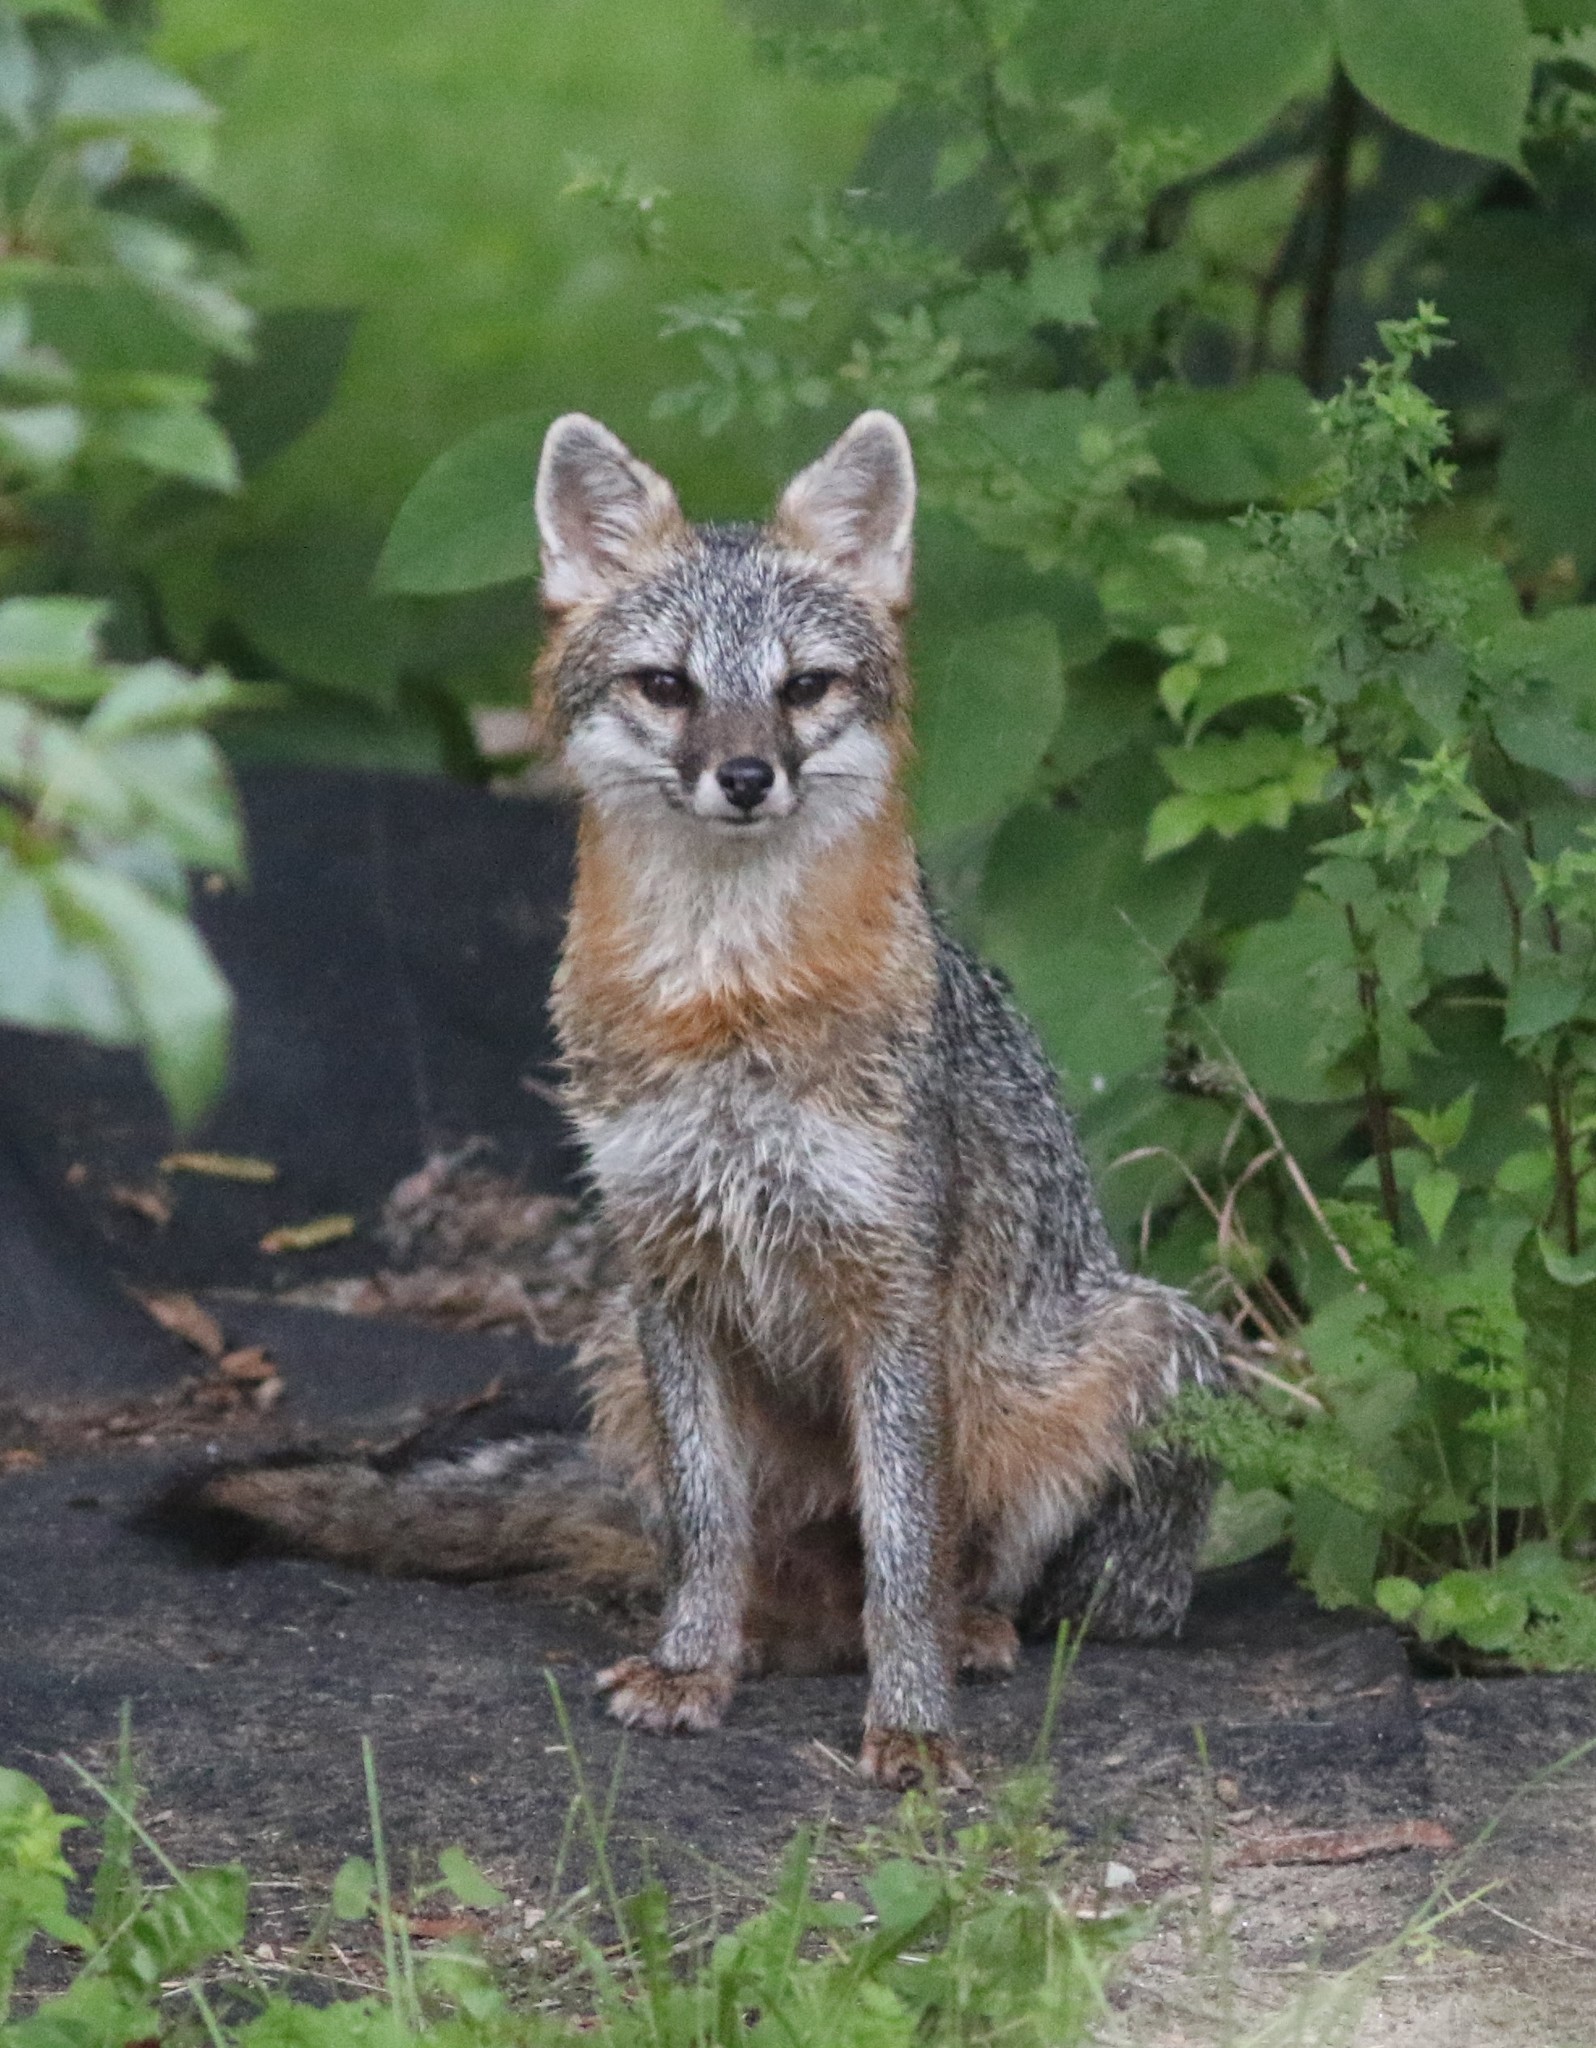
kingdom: Animalia
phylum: Chordata
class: Mammalia
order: Carnivora
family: Canidae
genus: Urocyon
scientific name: Urocyon cinereoargenteus
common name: Gray fox
